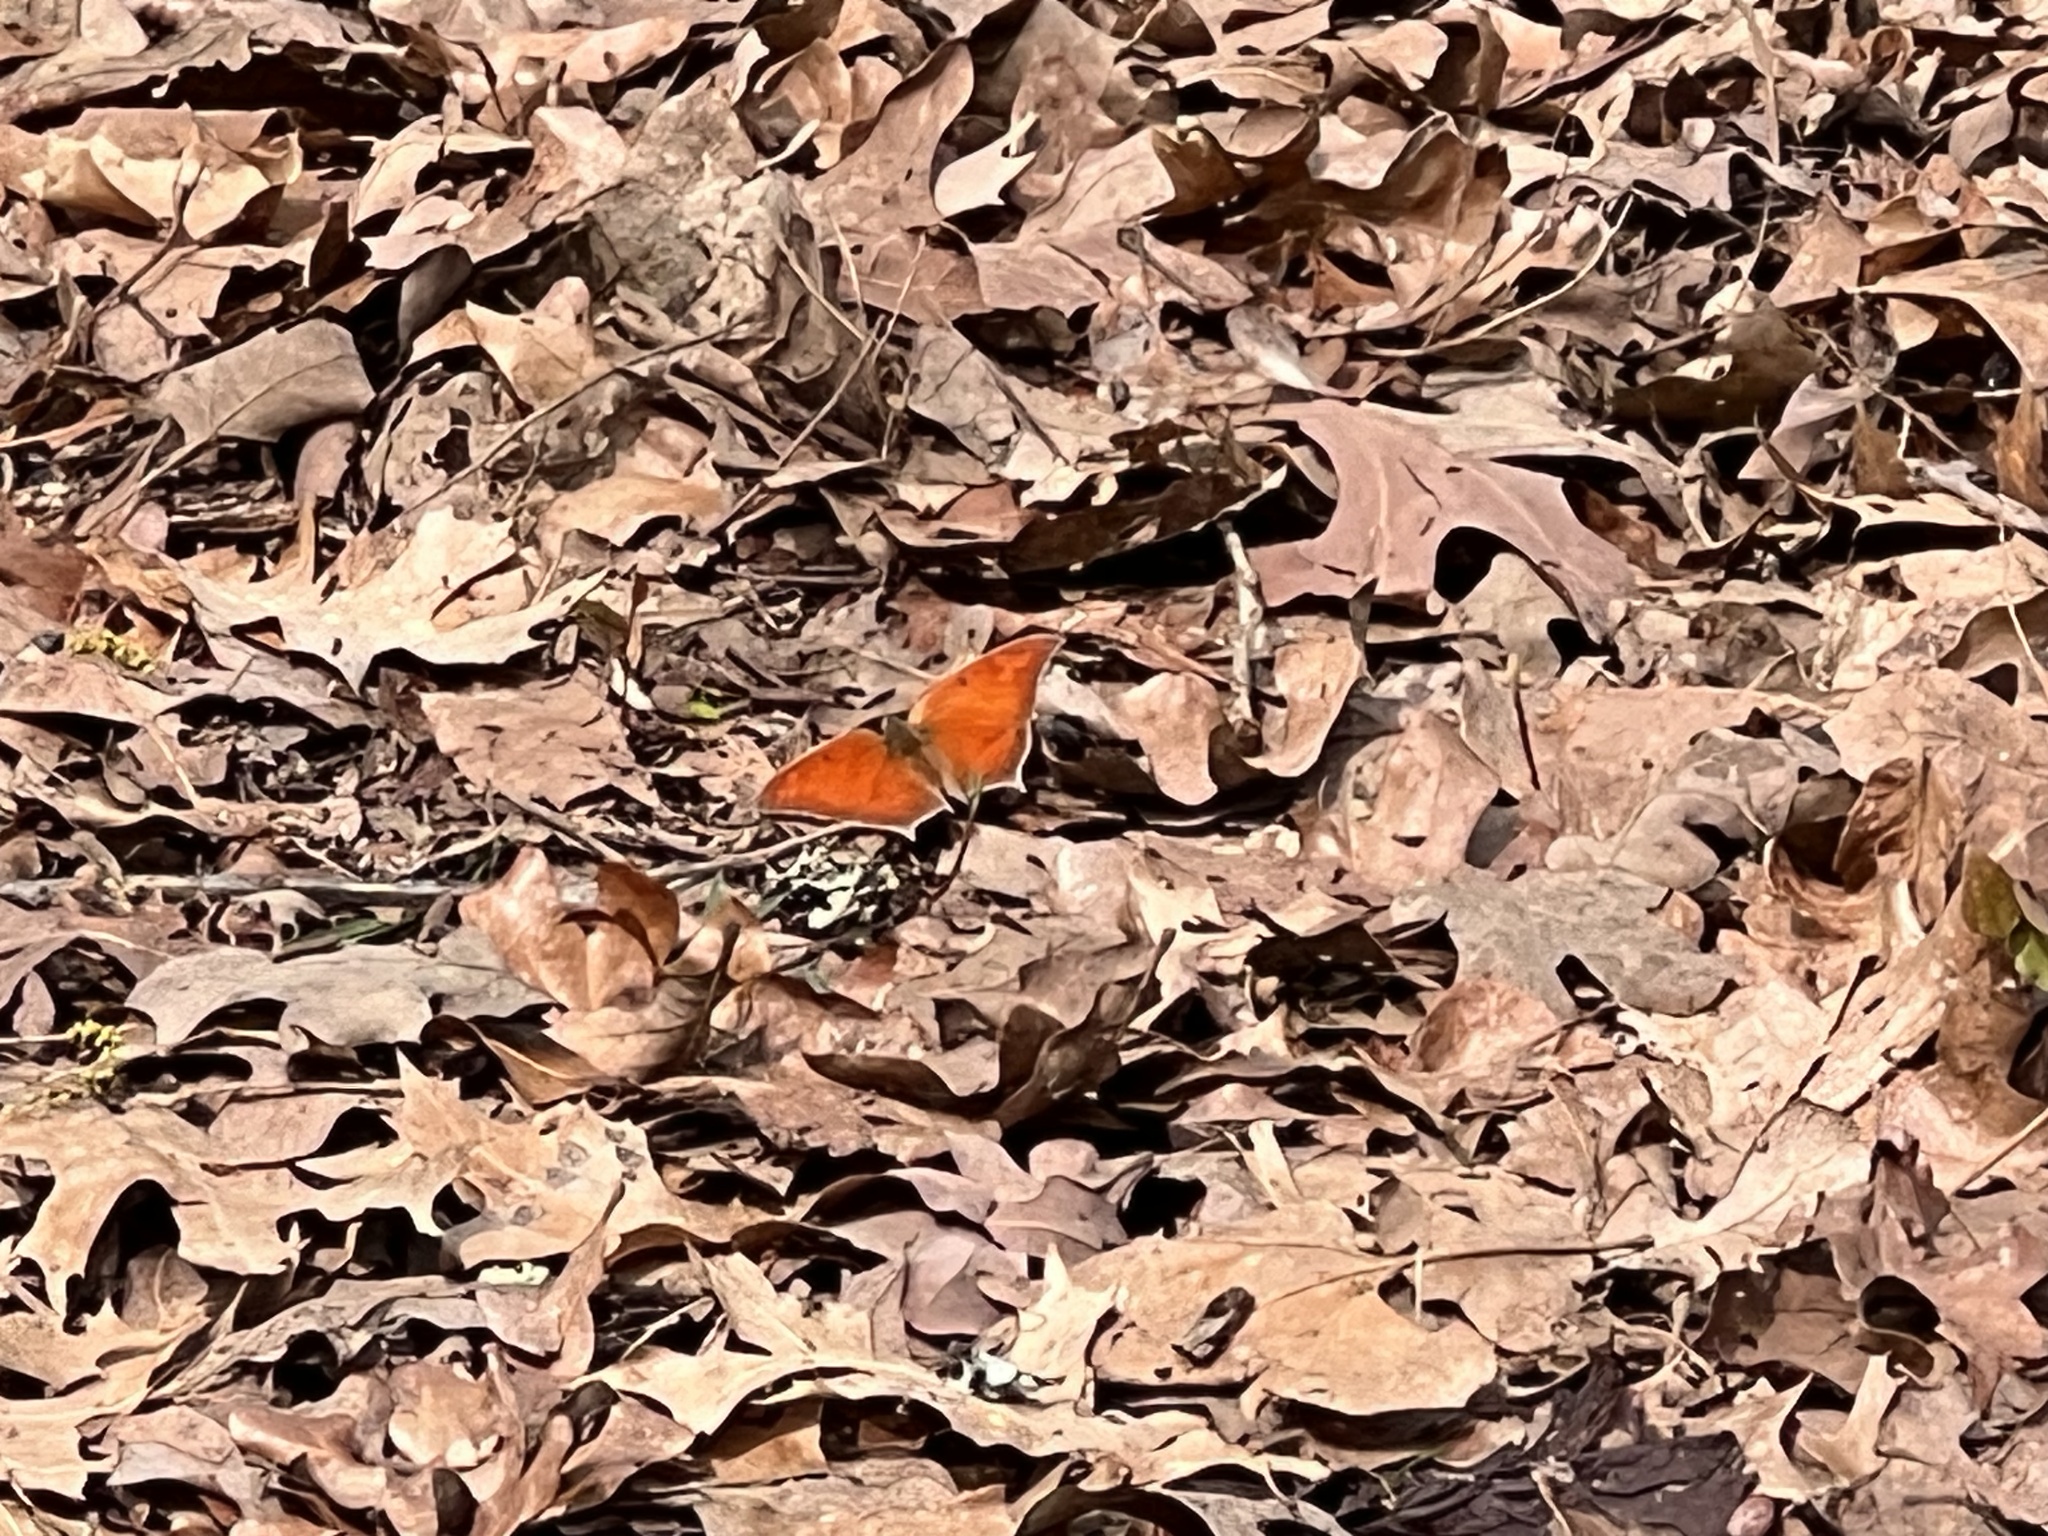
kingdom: Animalia
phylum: Arthropoda
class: Insecta
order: Lepidoptera
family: Nymphalidae
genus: Anaea
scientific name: Anaea andria
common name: Goatweed leafwing
